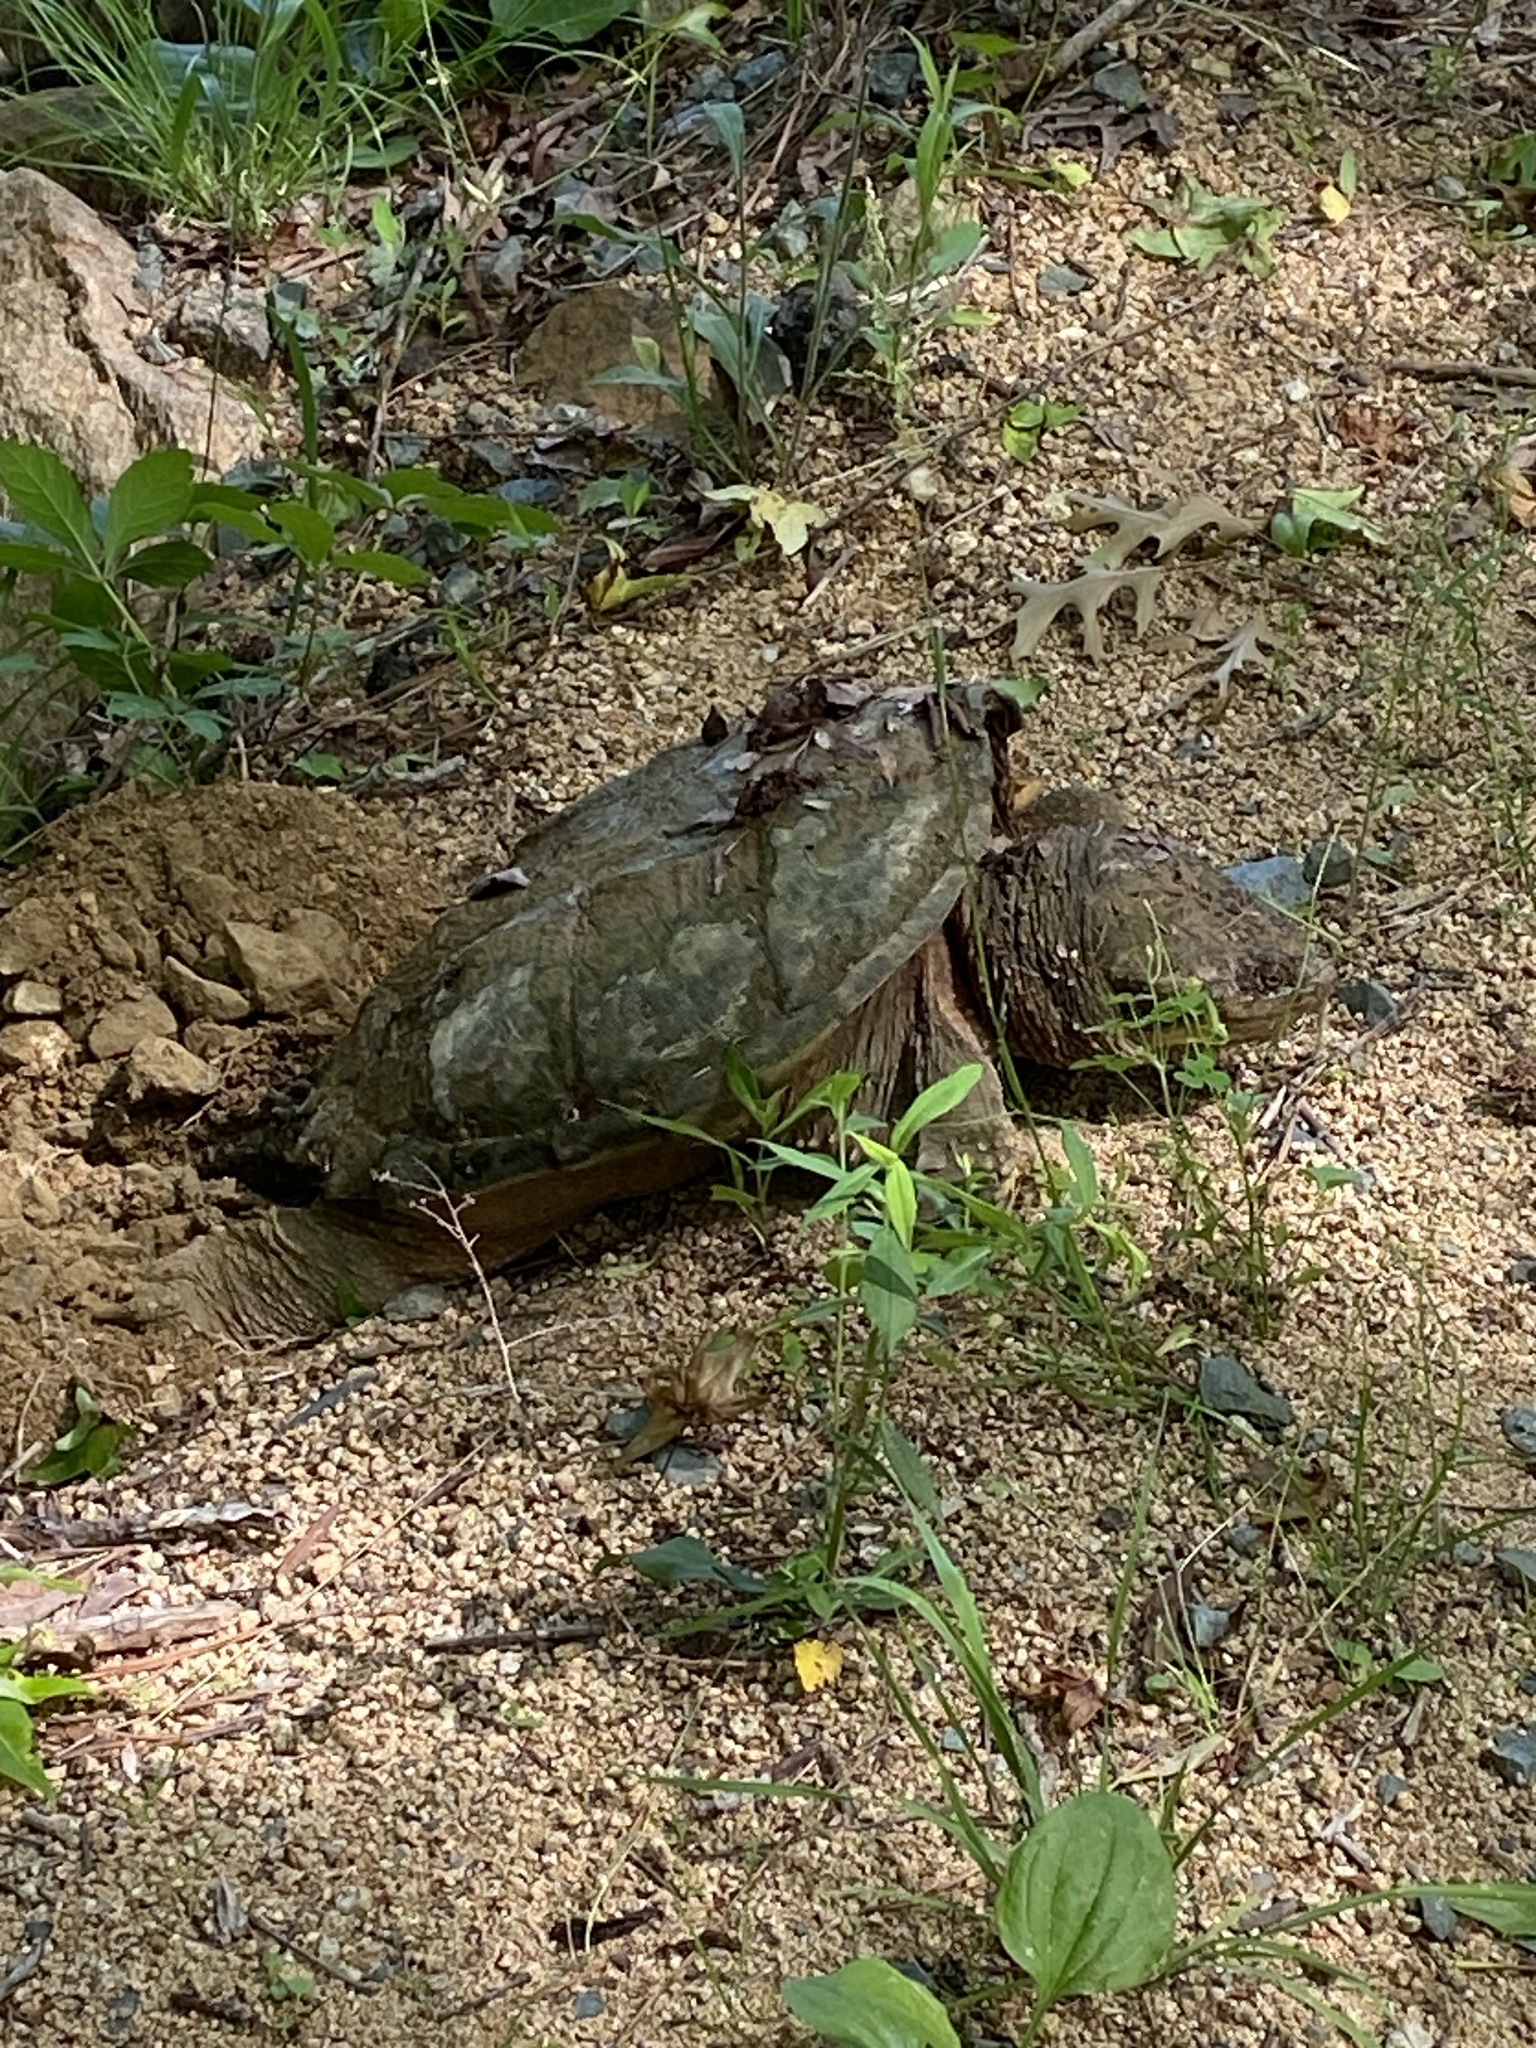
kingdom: Animalia
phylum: Chordata
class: Testudines
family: Chelydridae
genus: Chelydra
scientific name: Chelydra serpentina
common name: Common snapping turtle
